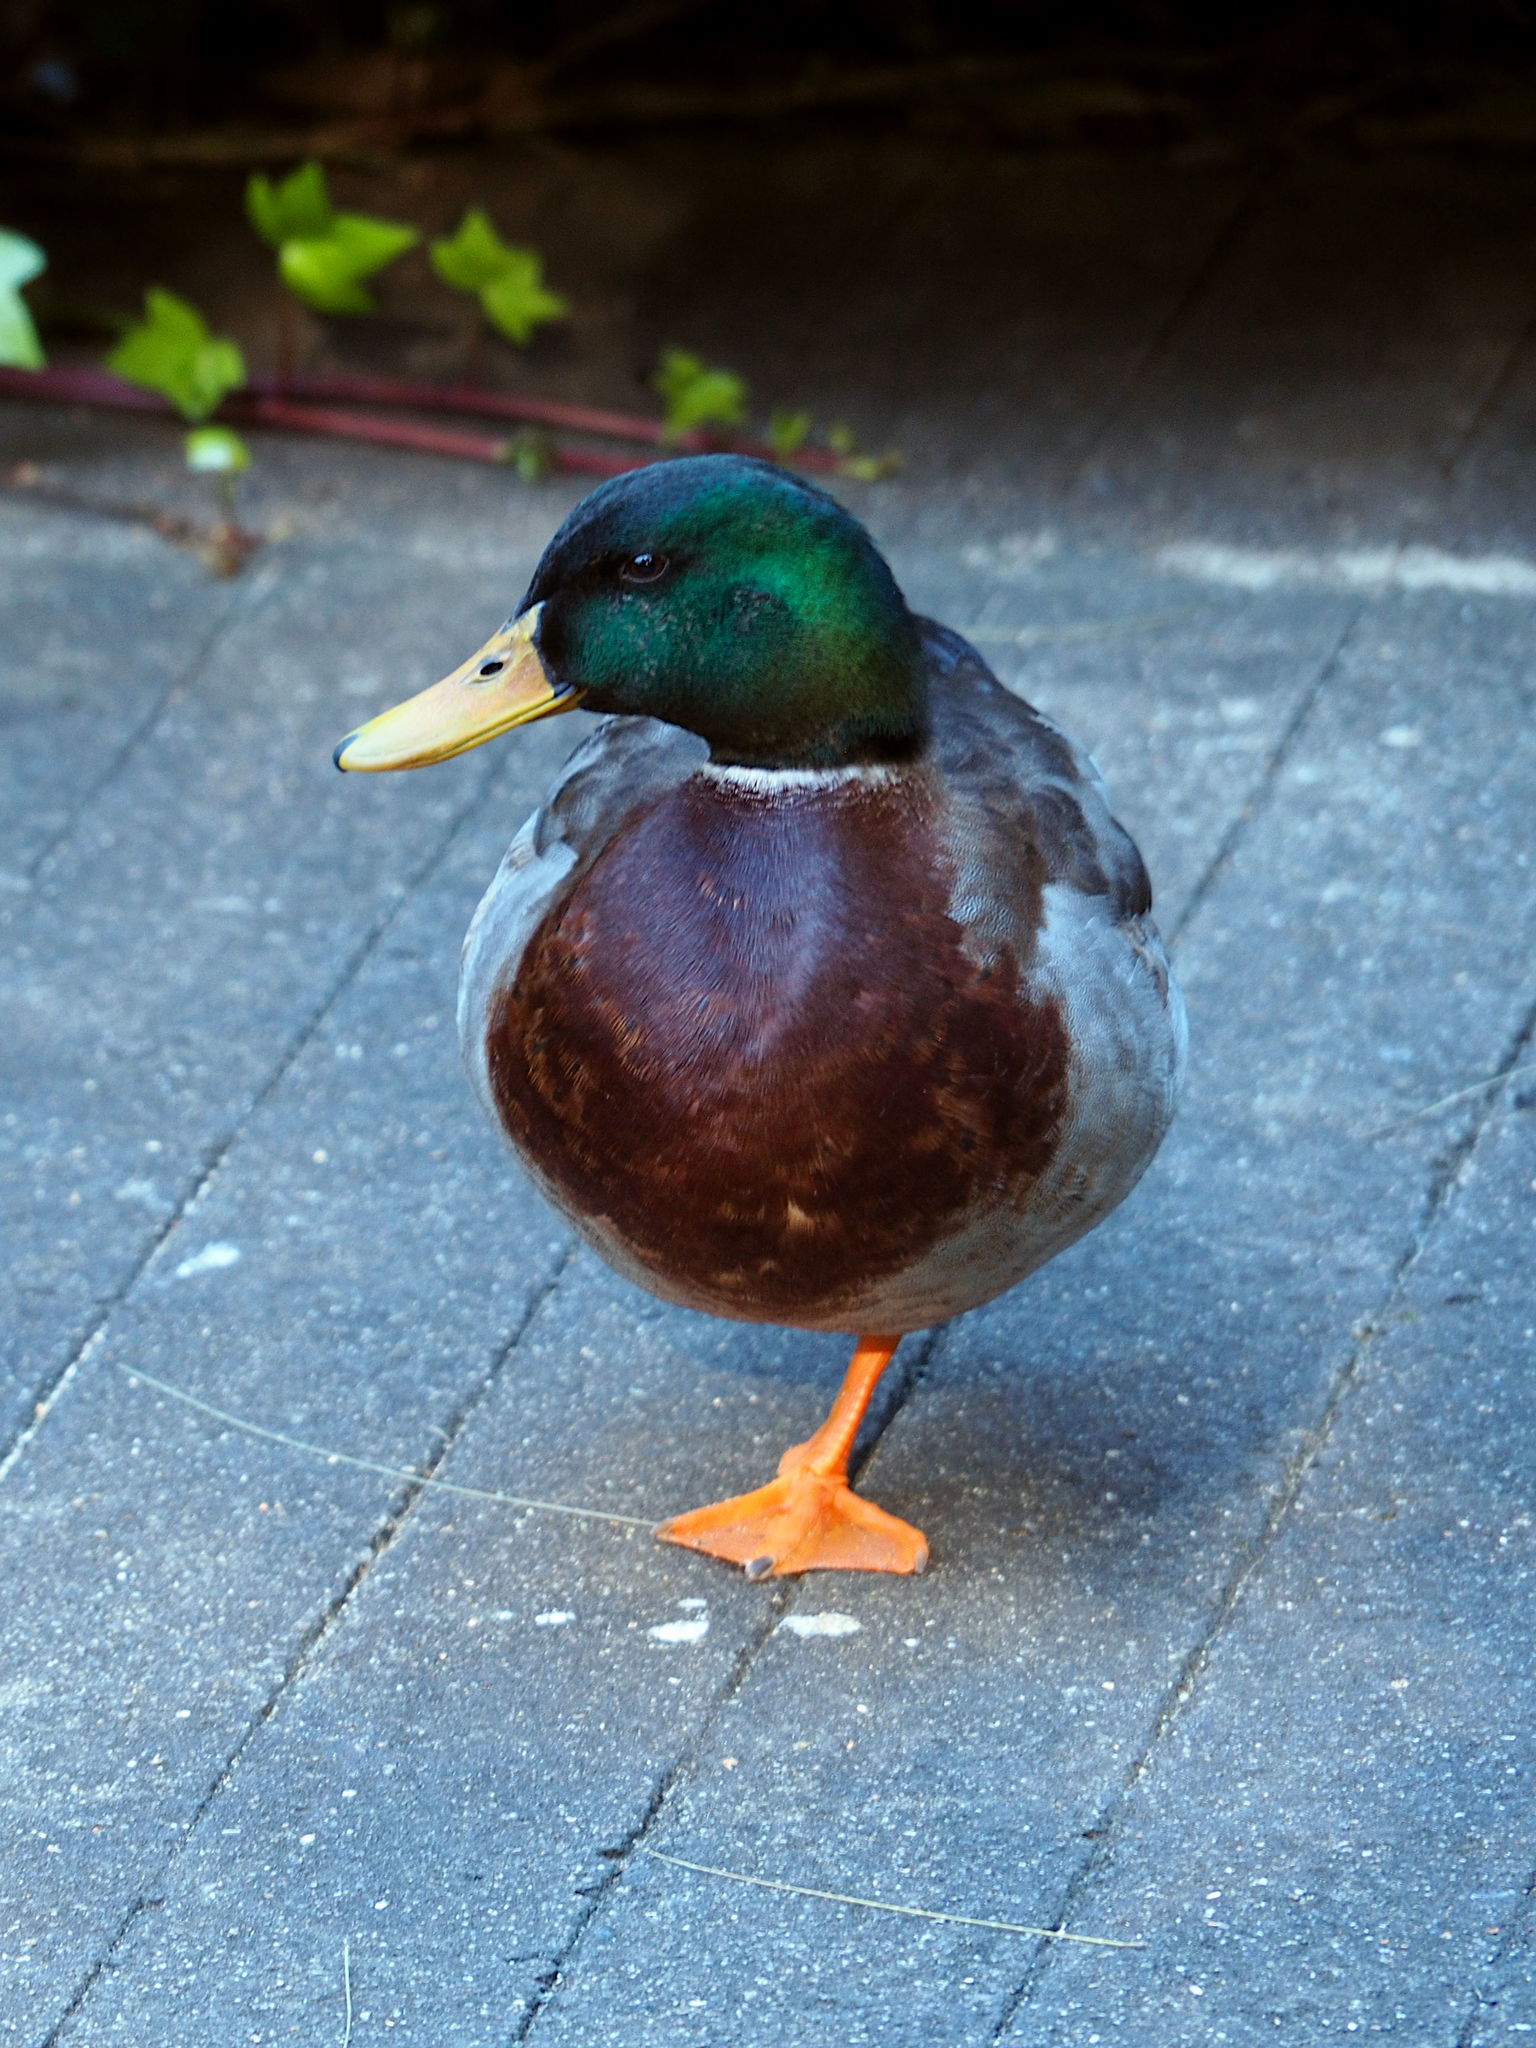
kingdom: Animalia
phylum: Chordata
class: Aves
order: Anseriformes
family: Anatidae
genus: Anas
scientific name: Anas platyrhynchos
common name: Mallard
